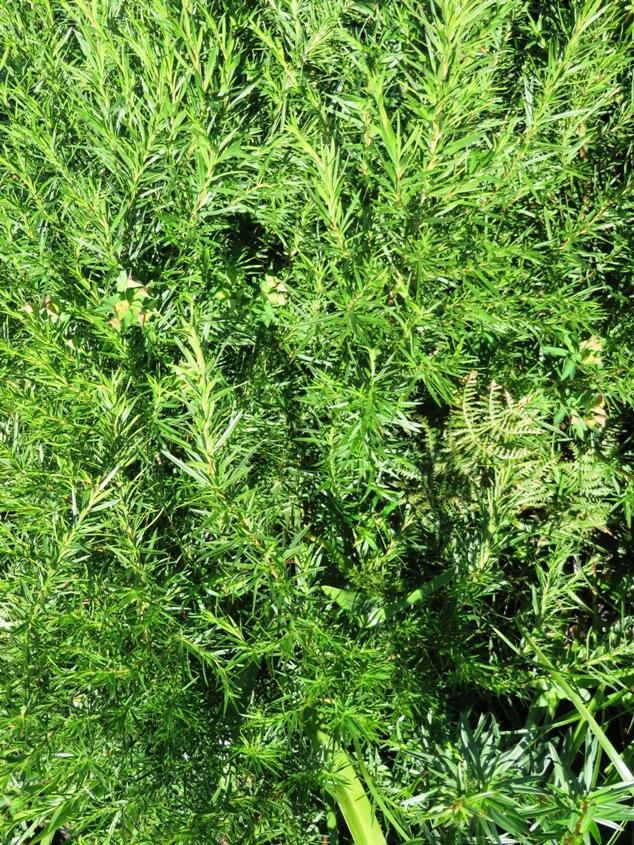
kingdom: Plantae
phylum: Tracheophyta
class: Magnoliopsida
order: Rosales
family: Rosaceae
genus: Cliffortia
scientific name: Cliffortia strobilifera
